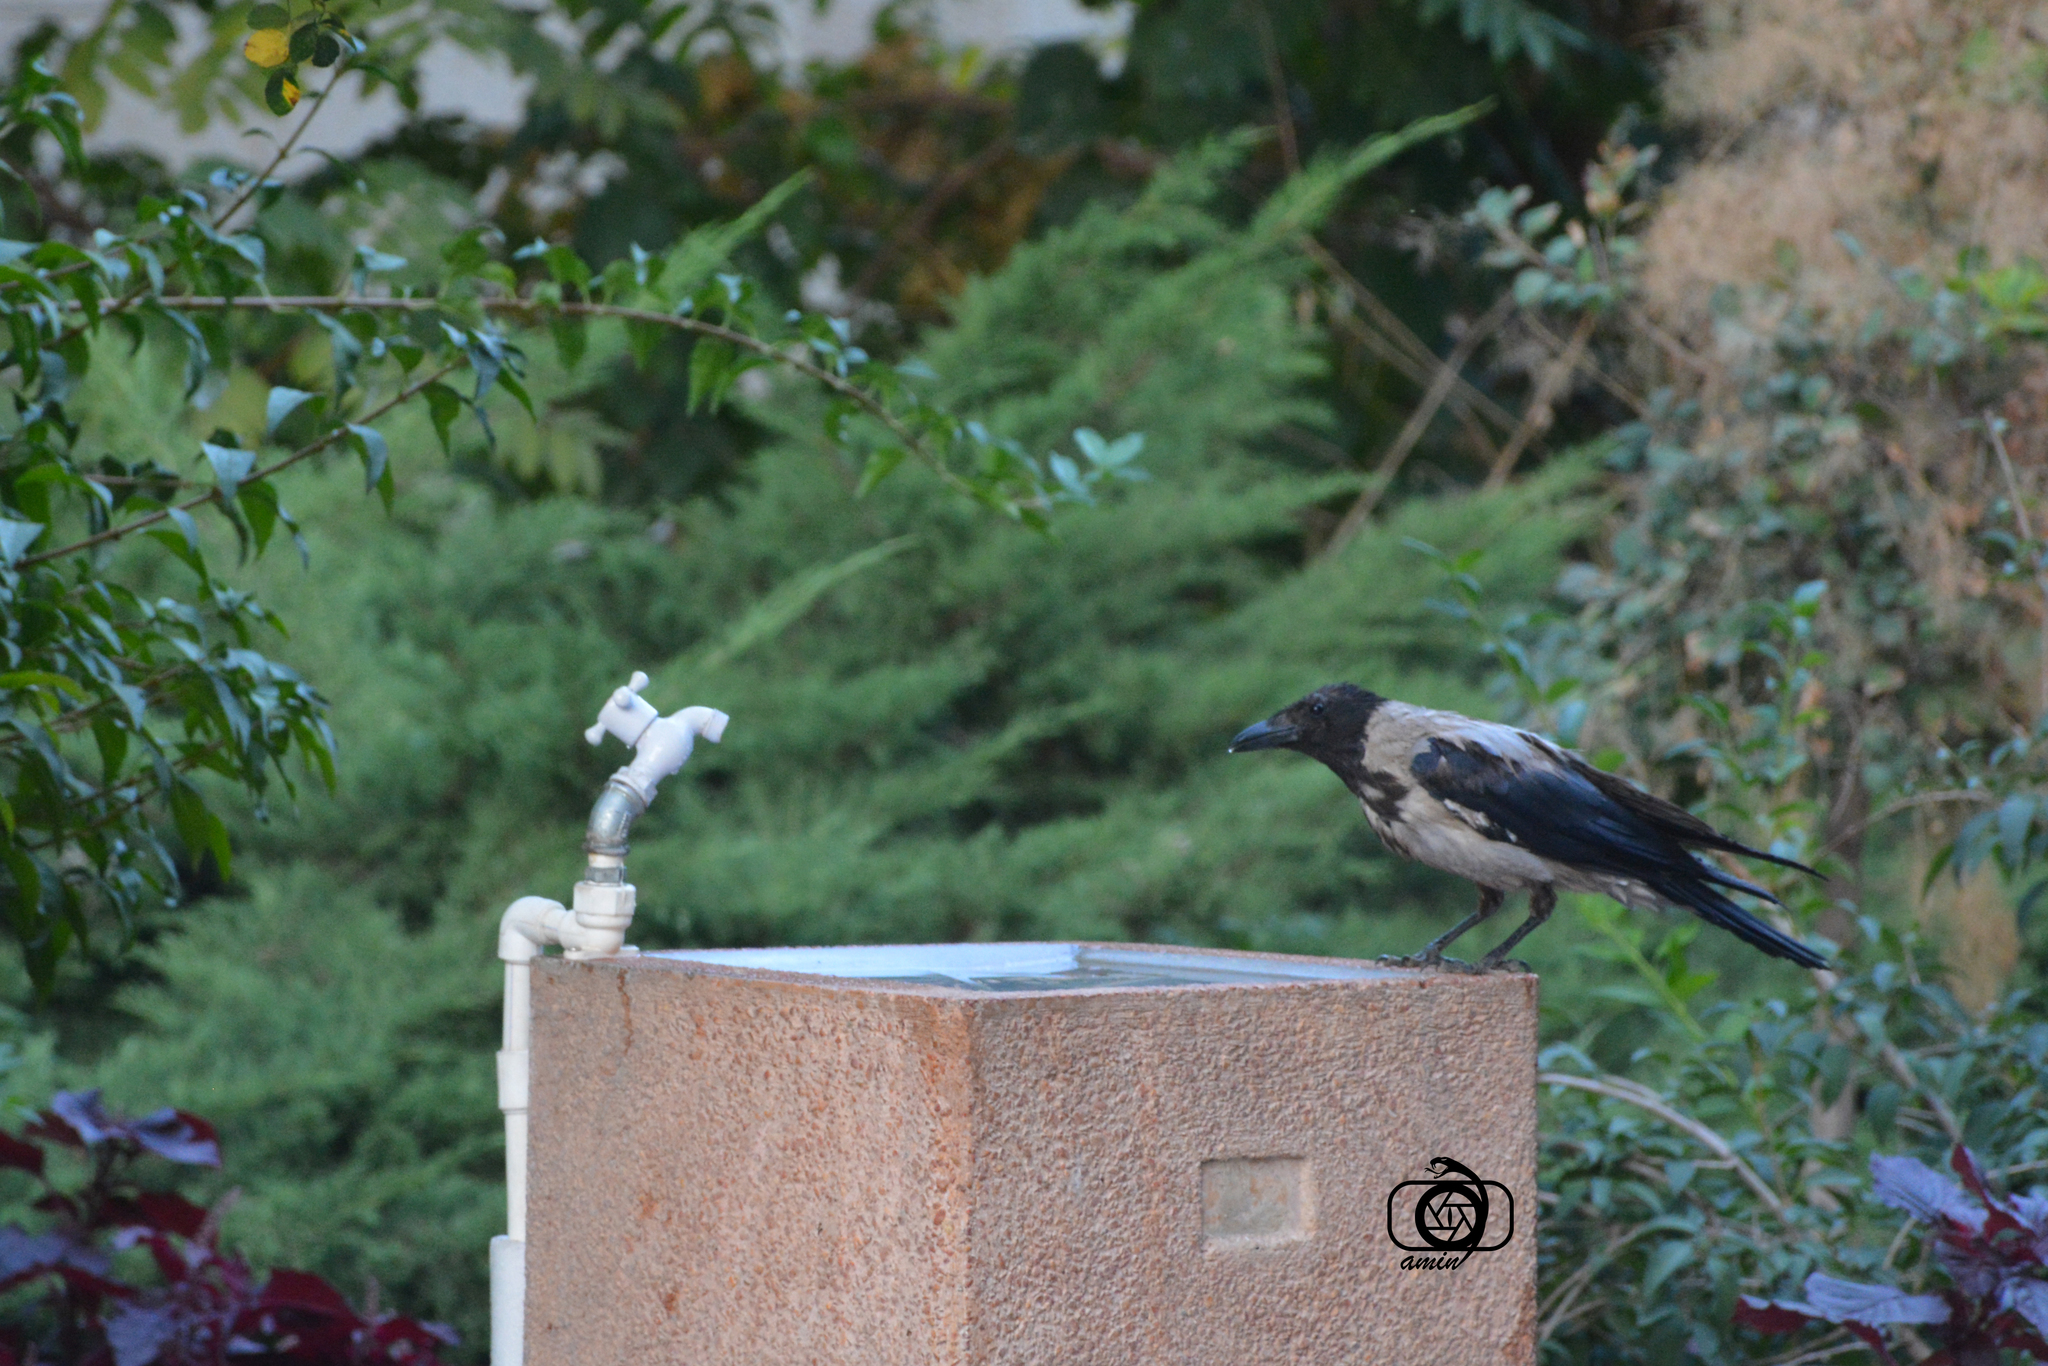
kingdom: Animalia
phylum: Chordata
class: Aves
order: Passeriformes
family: Corvidae
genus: Corvus
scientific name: Corvus cornix
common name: Hooded crow
